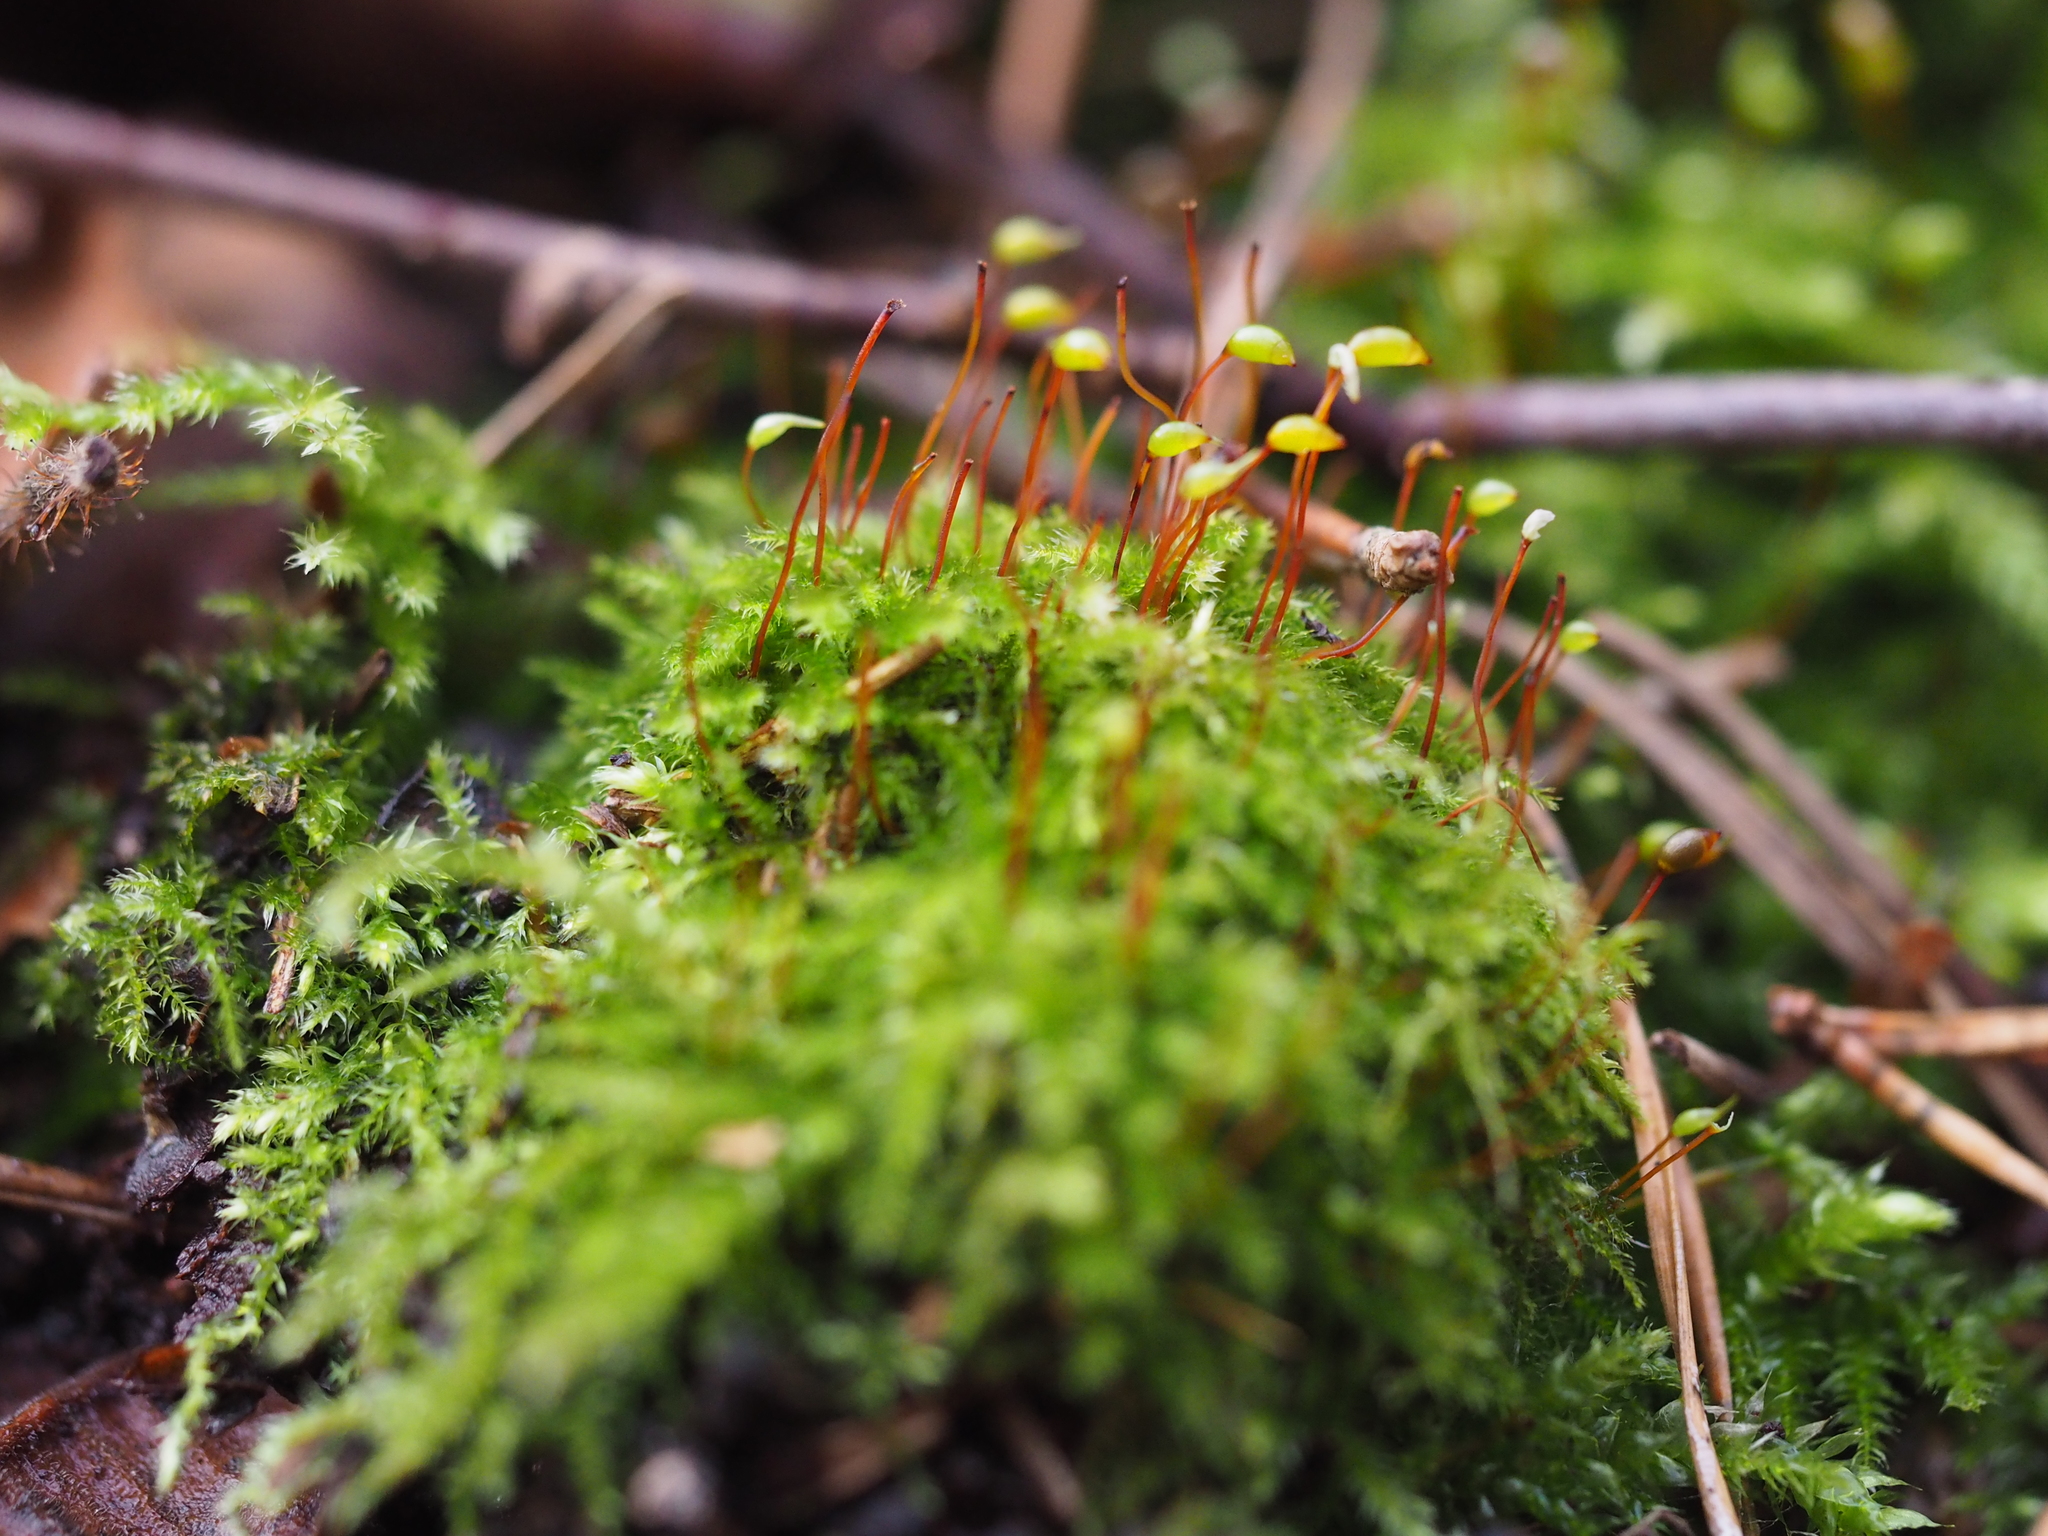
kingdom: Plantae
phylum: Bryophyta
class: Bryopsida
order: Hypnales
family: Brachytheciaceae
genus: Brachytheciastrum
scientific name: Brachytheciastrum velutinum
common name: Velvet feather-moss
